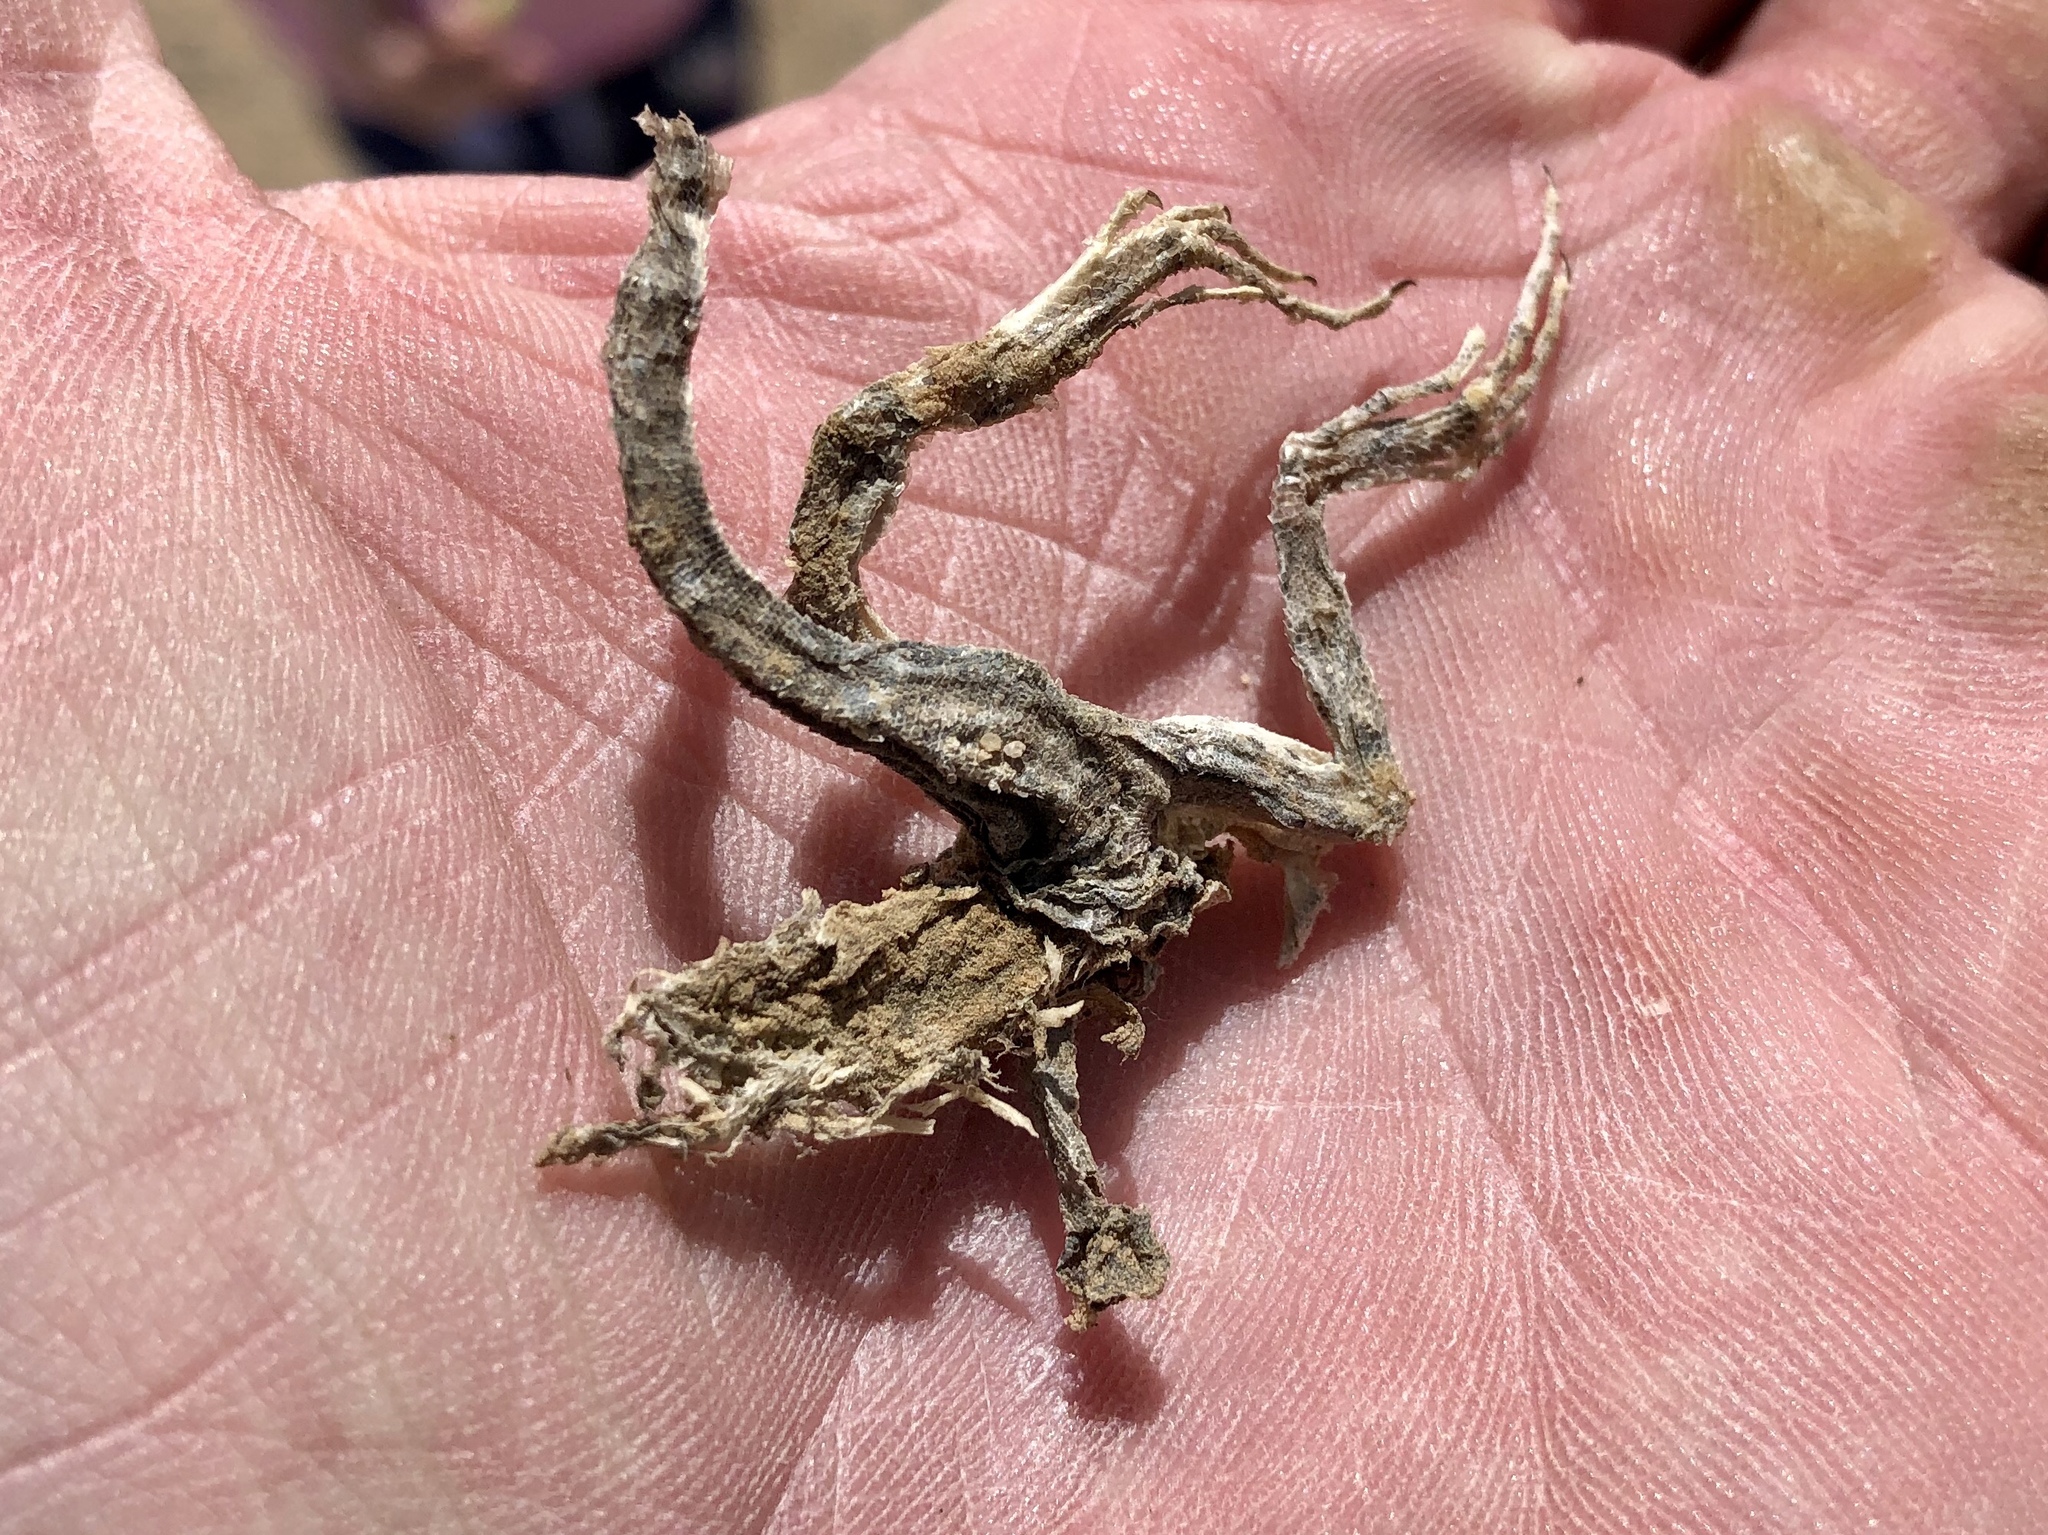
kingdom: Animalia
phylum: Chordata
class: Squamata
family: Phrynosomatidae
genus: Cophosaurus
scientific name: Cophosaurus texanus
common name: Greater earless lizard
